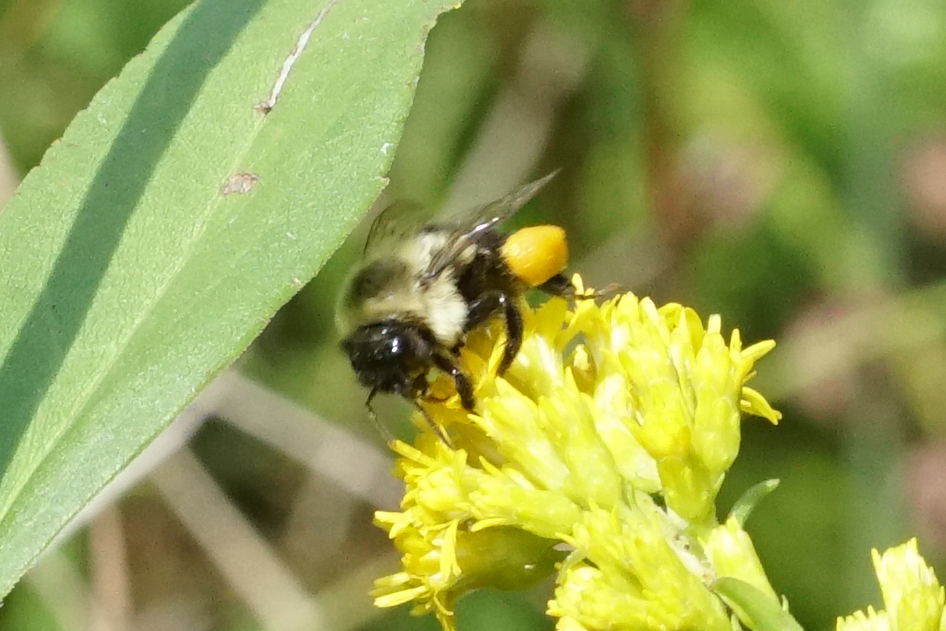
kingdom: Animalia
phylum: Arthropoda
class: Insecta
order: Hymenoptera
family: Apidae
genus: Bombus
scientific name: Bombus impatiens
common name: Common eastern bumble bee
